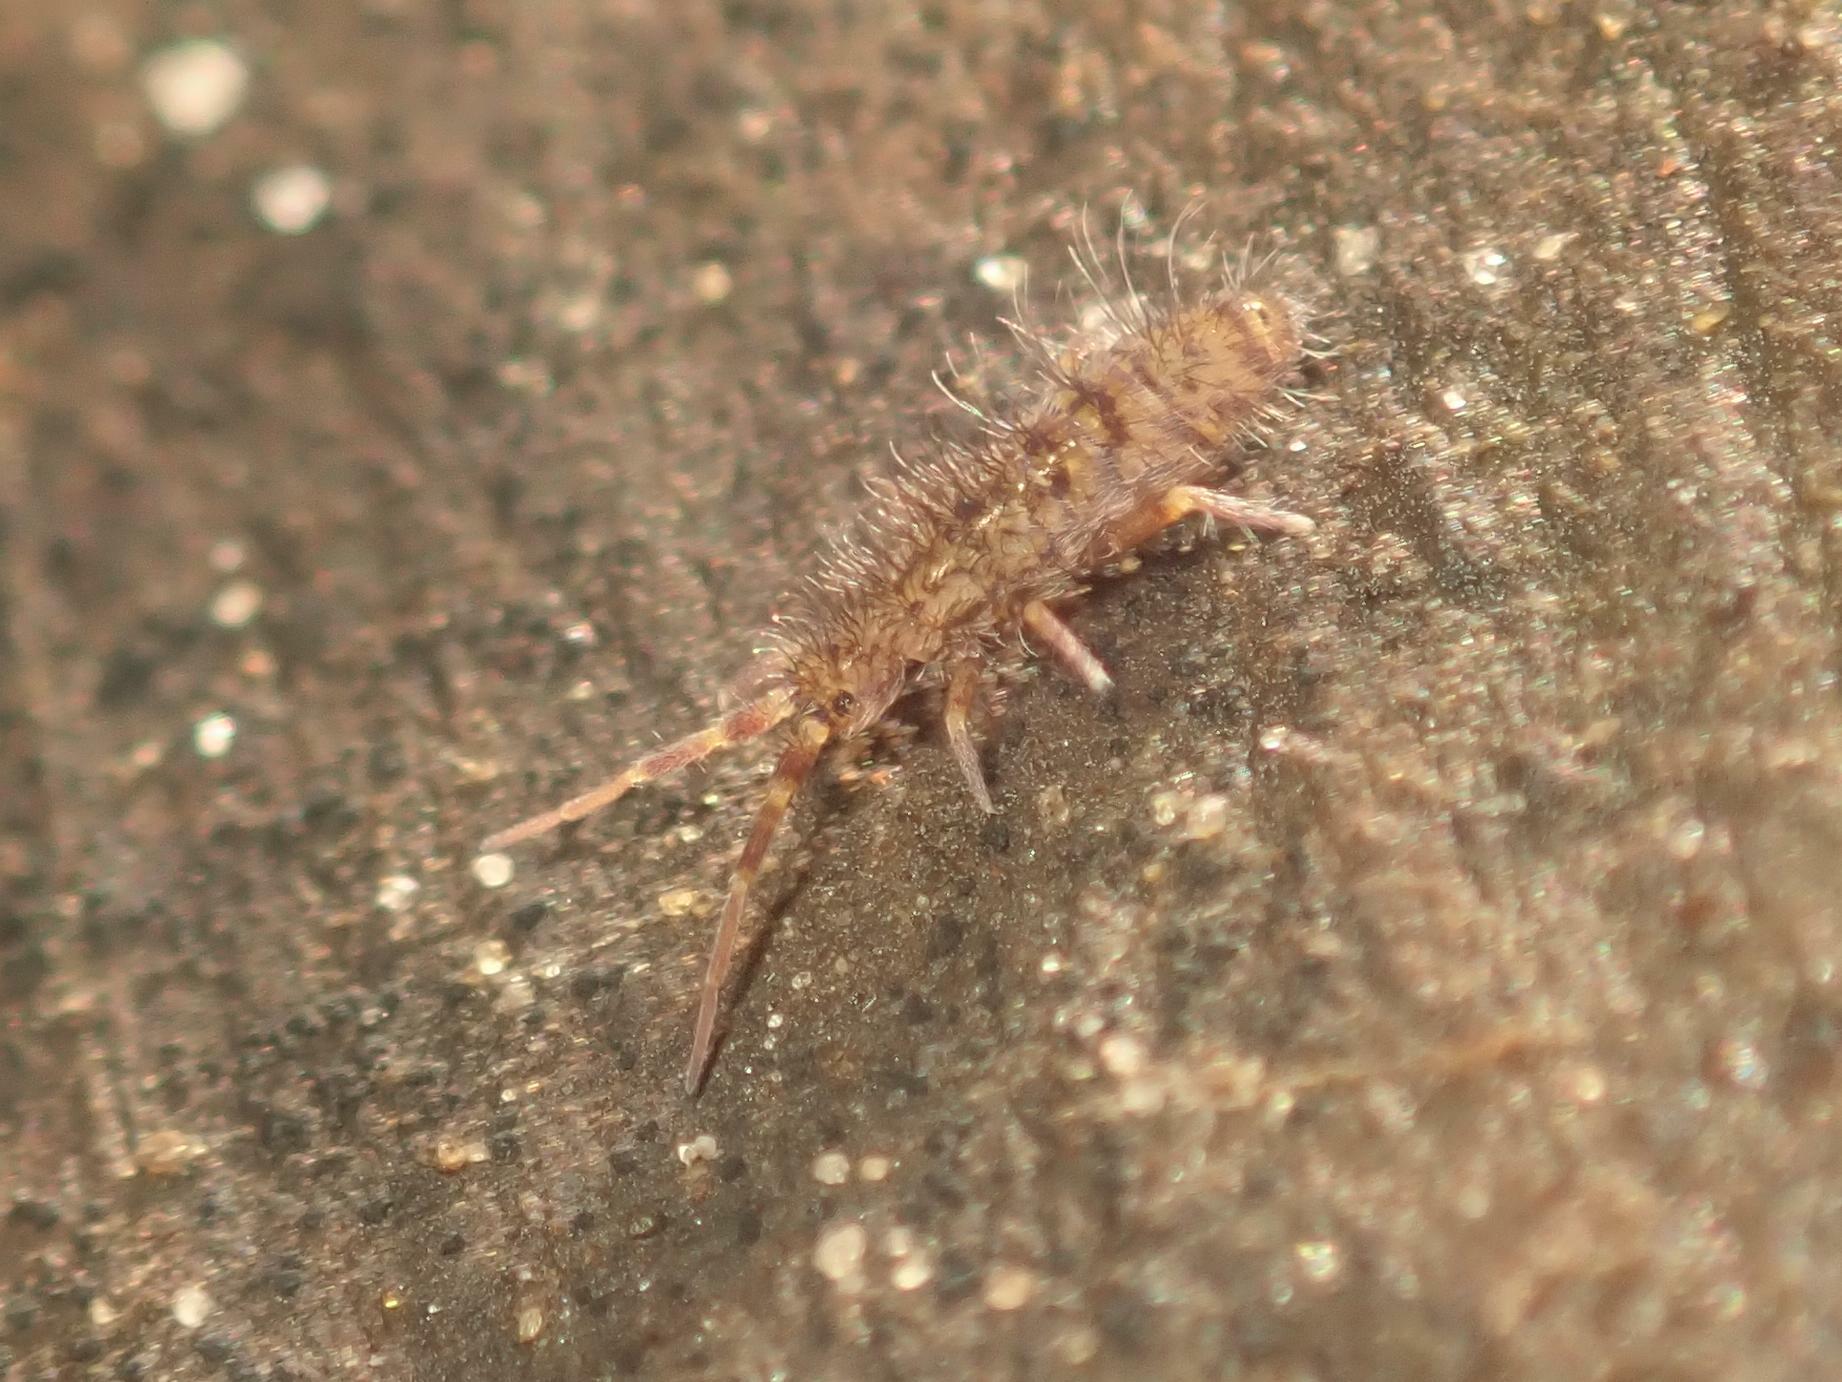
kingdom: Animalia
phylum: Arthropoda
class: Collembola
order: Entomobryomorpha
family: Orchesellidae
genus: Orchesella
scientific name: Orchesella villosa
